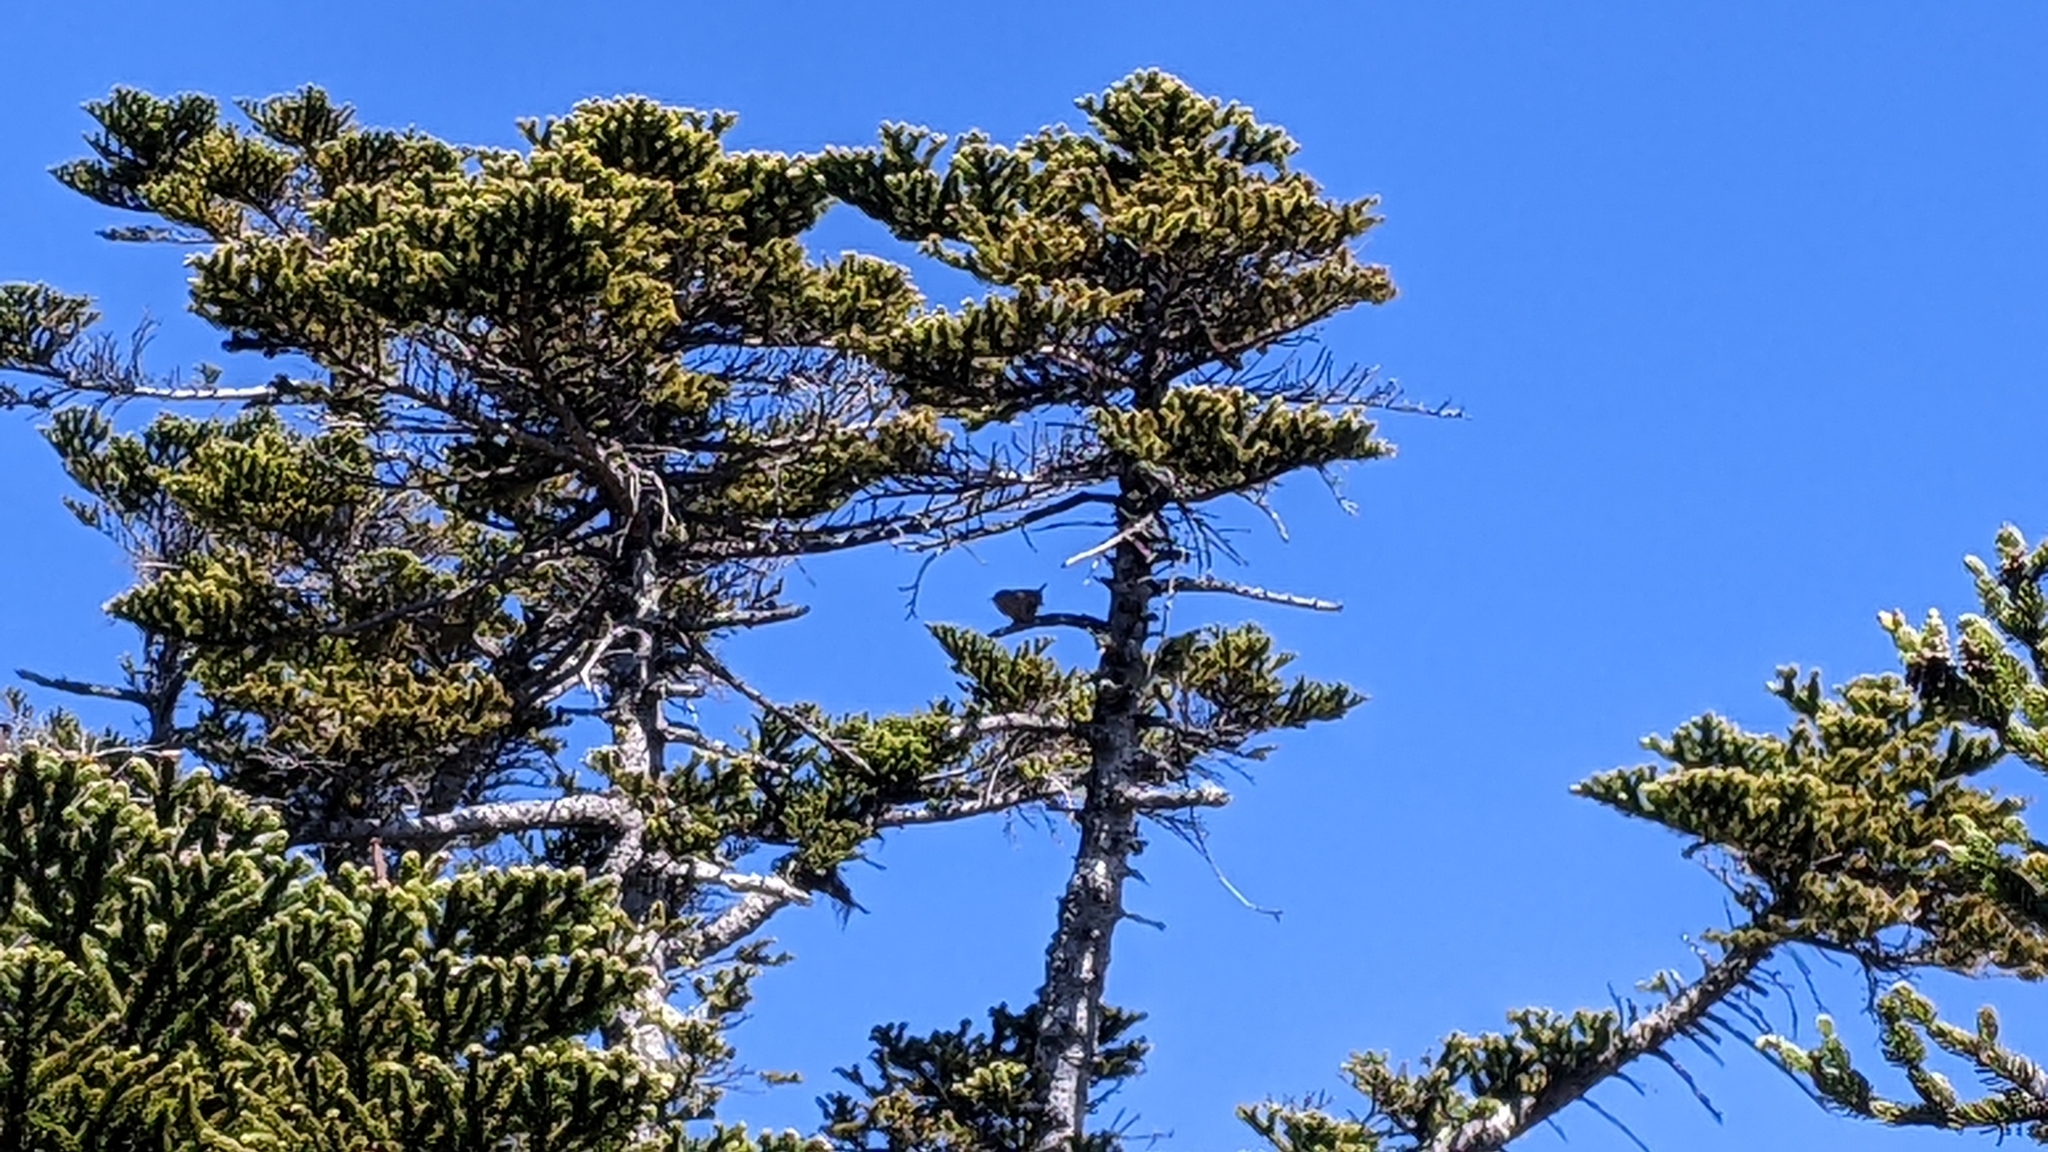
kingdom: Animalia
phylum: Chordata
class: Aves
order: Passeriformes
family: Troglodytidae
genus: Troglodytes
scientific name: Troglodytes troglodytes
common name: Eurasian wren
